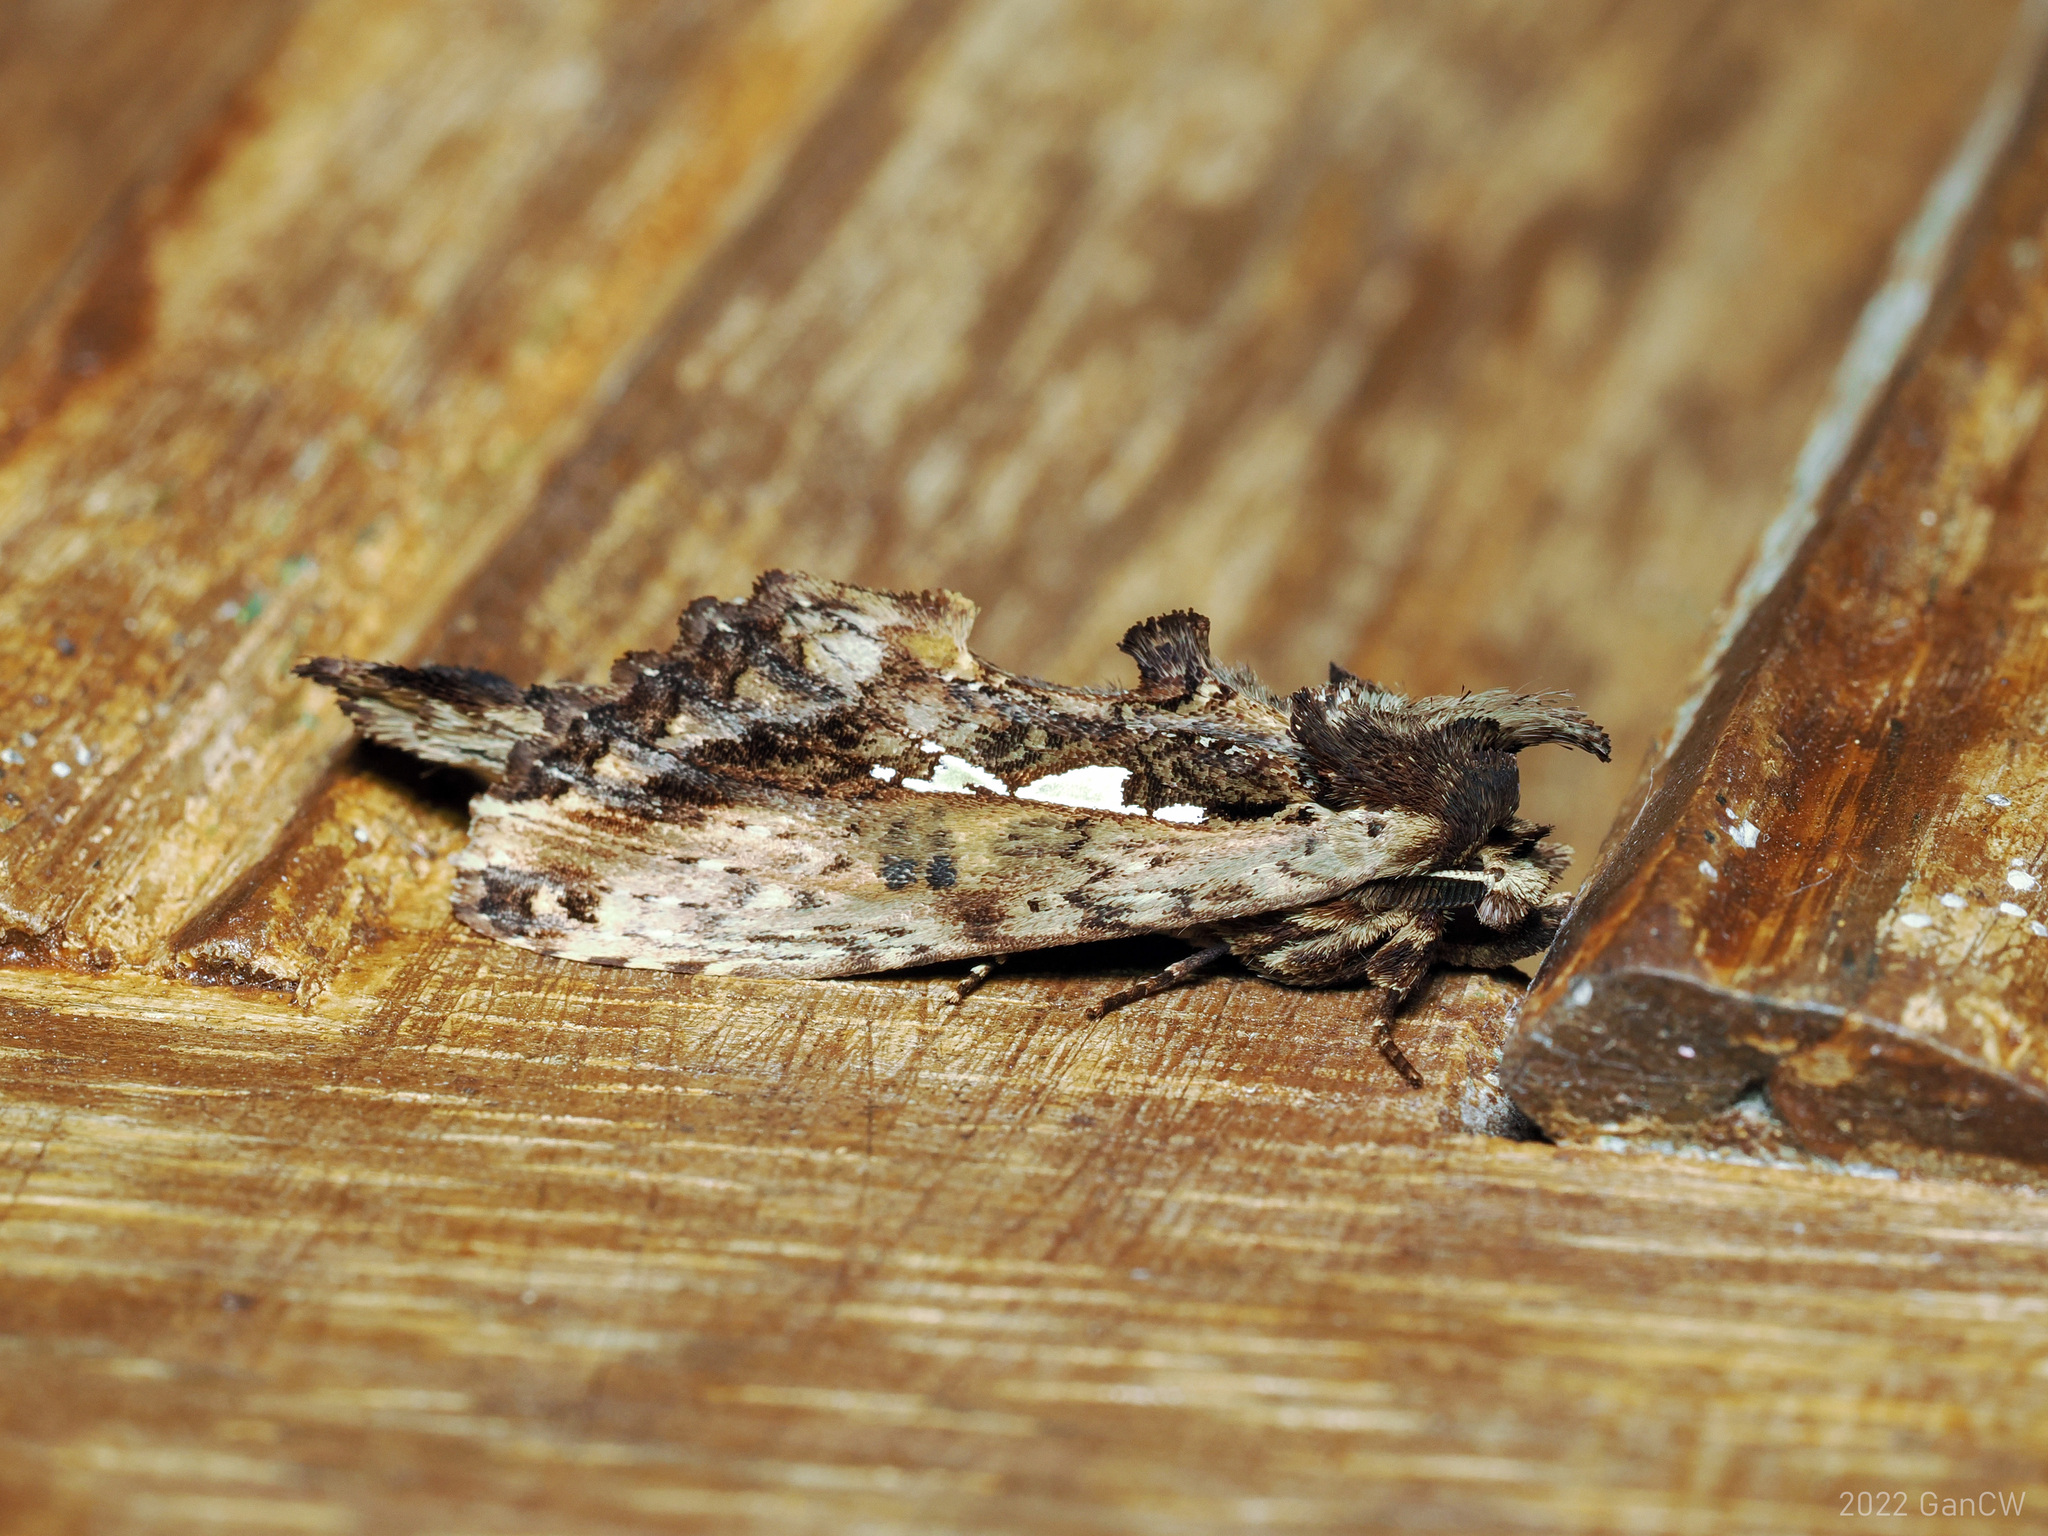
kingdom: Animalia
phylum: Arthropoda
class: Insecta
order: Lepidoptera
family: Notodontidae
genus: Spatalia
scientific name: Spatalia
